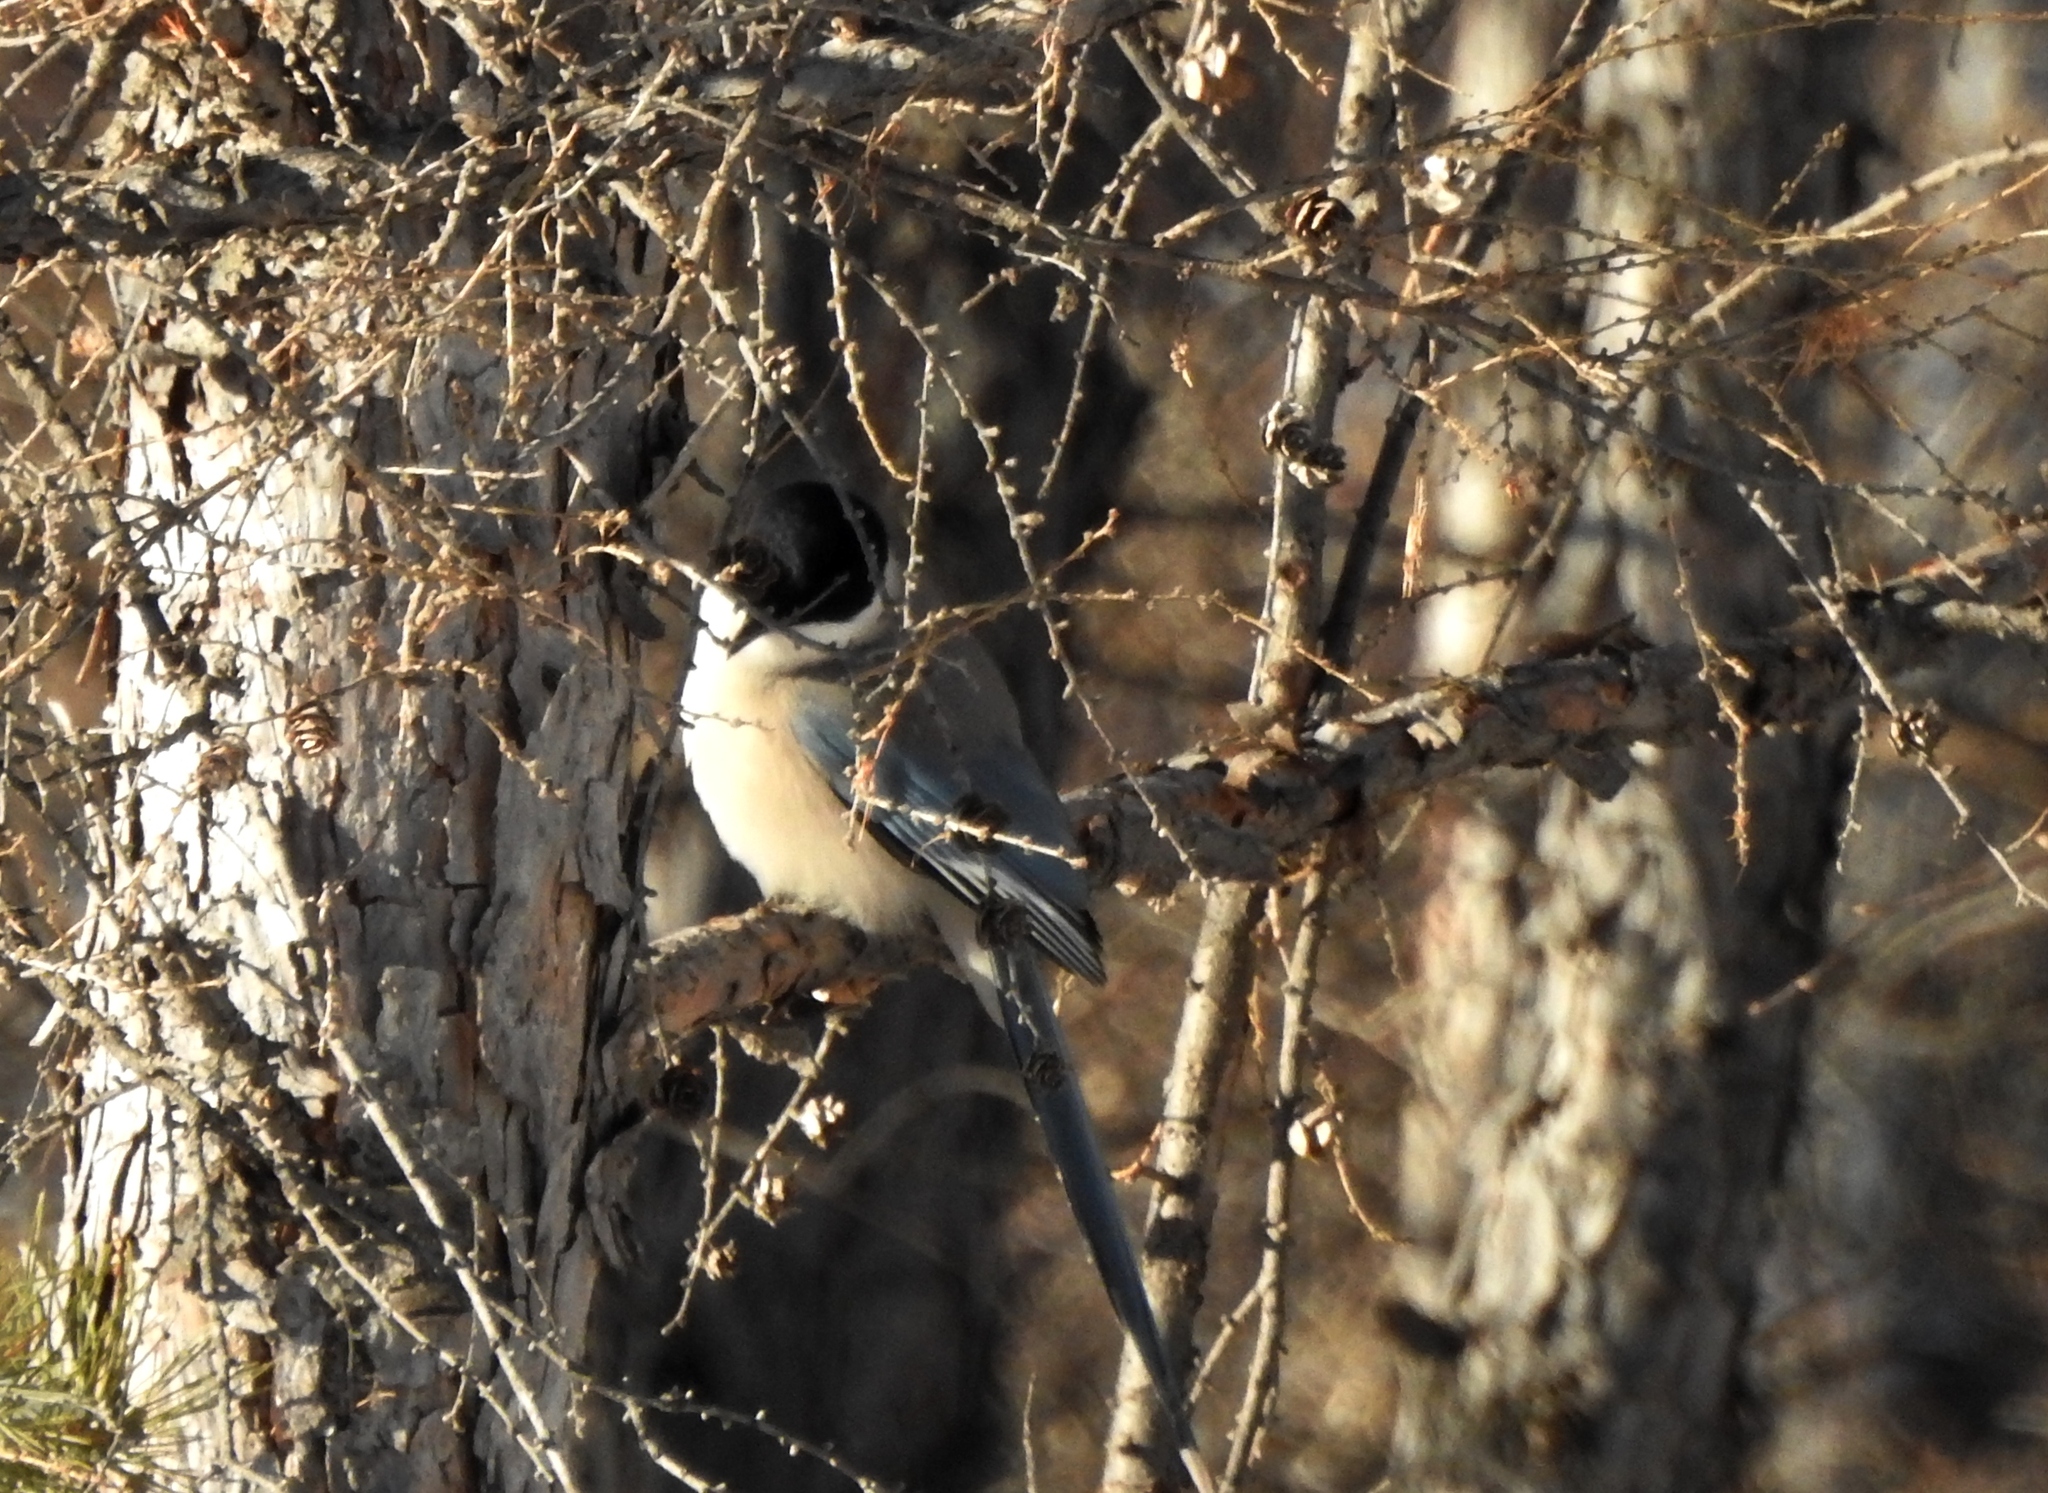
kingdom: Animalia
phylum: Chordata
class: Aves
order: Passeriformes
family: Corvidae
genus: Cyanopica
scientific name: Cyanopica cyanus
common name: Azure-winged magpie
